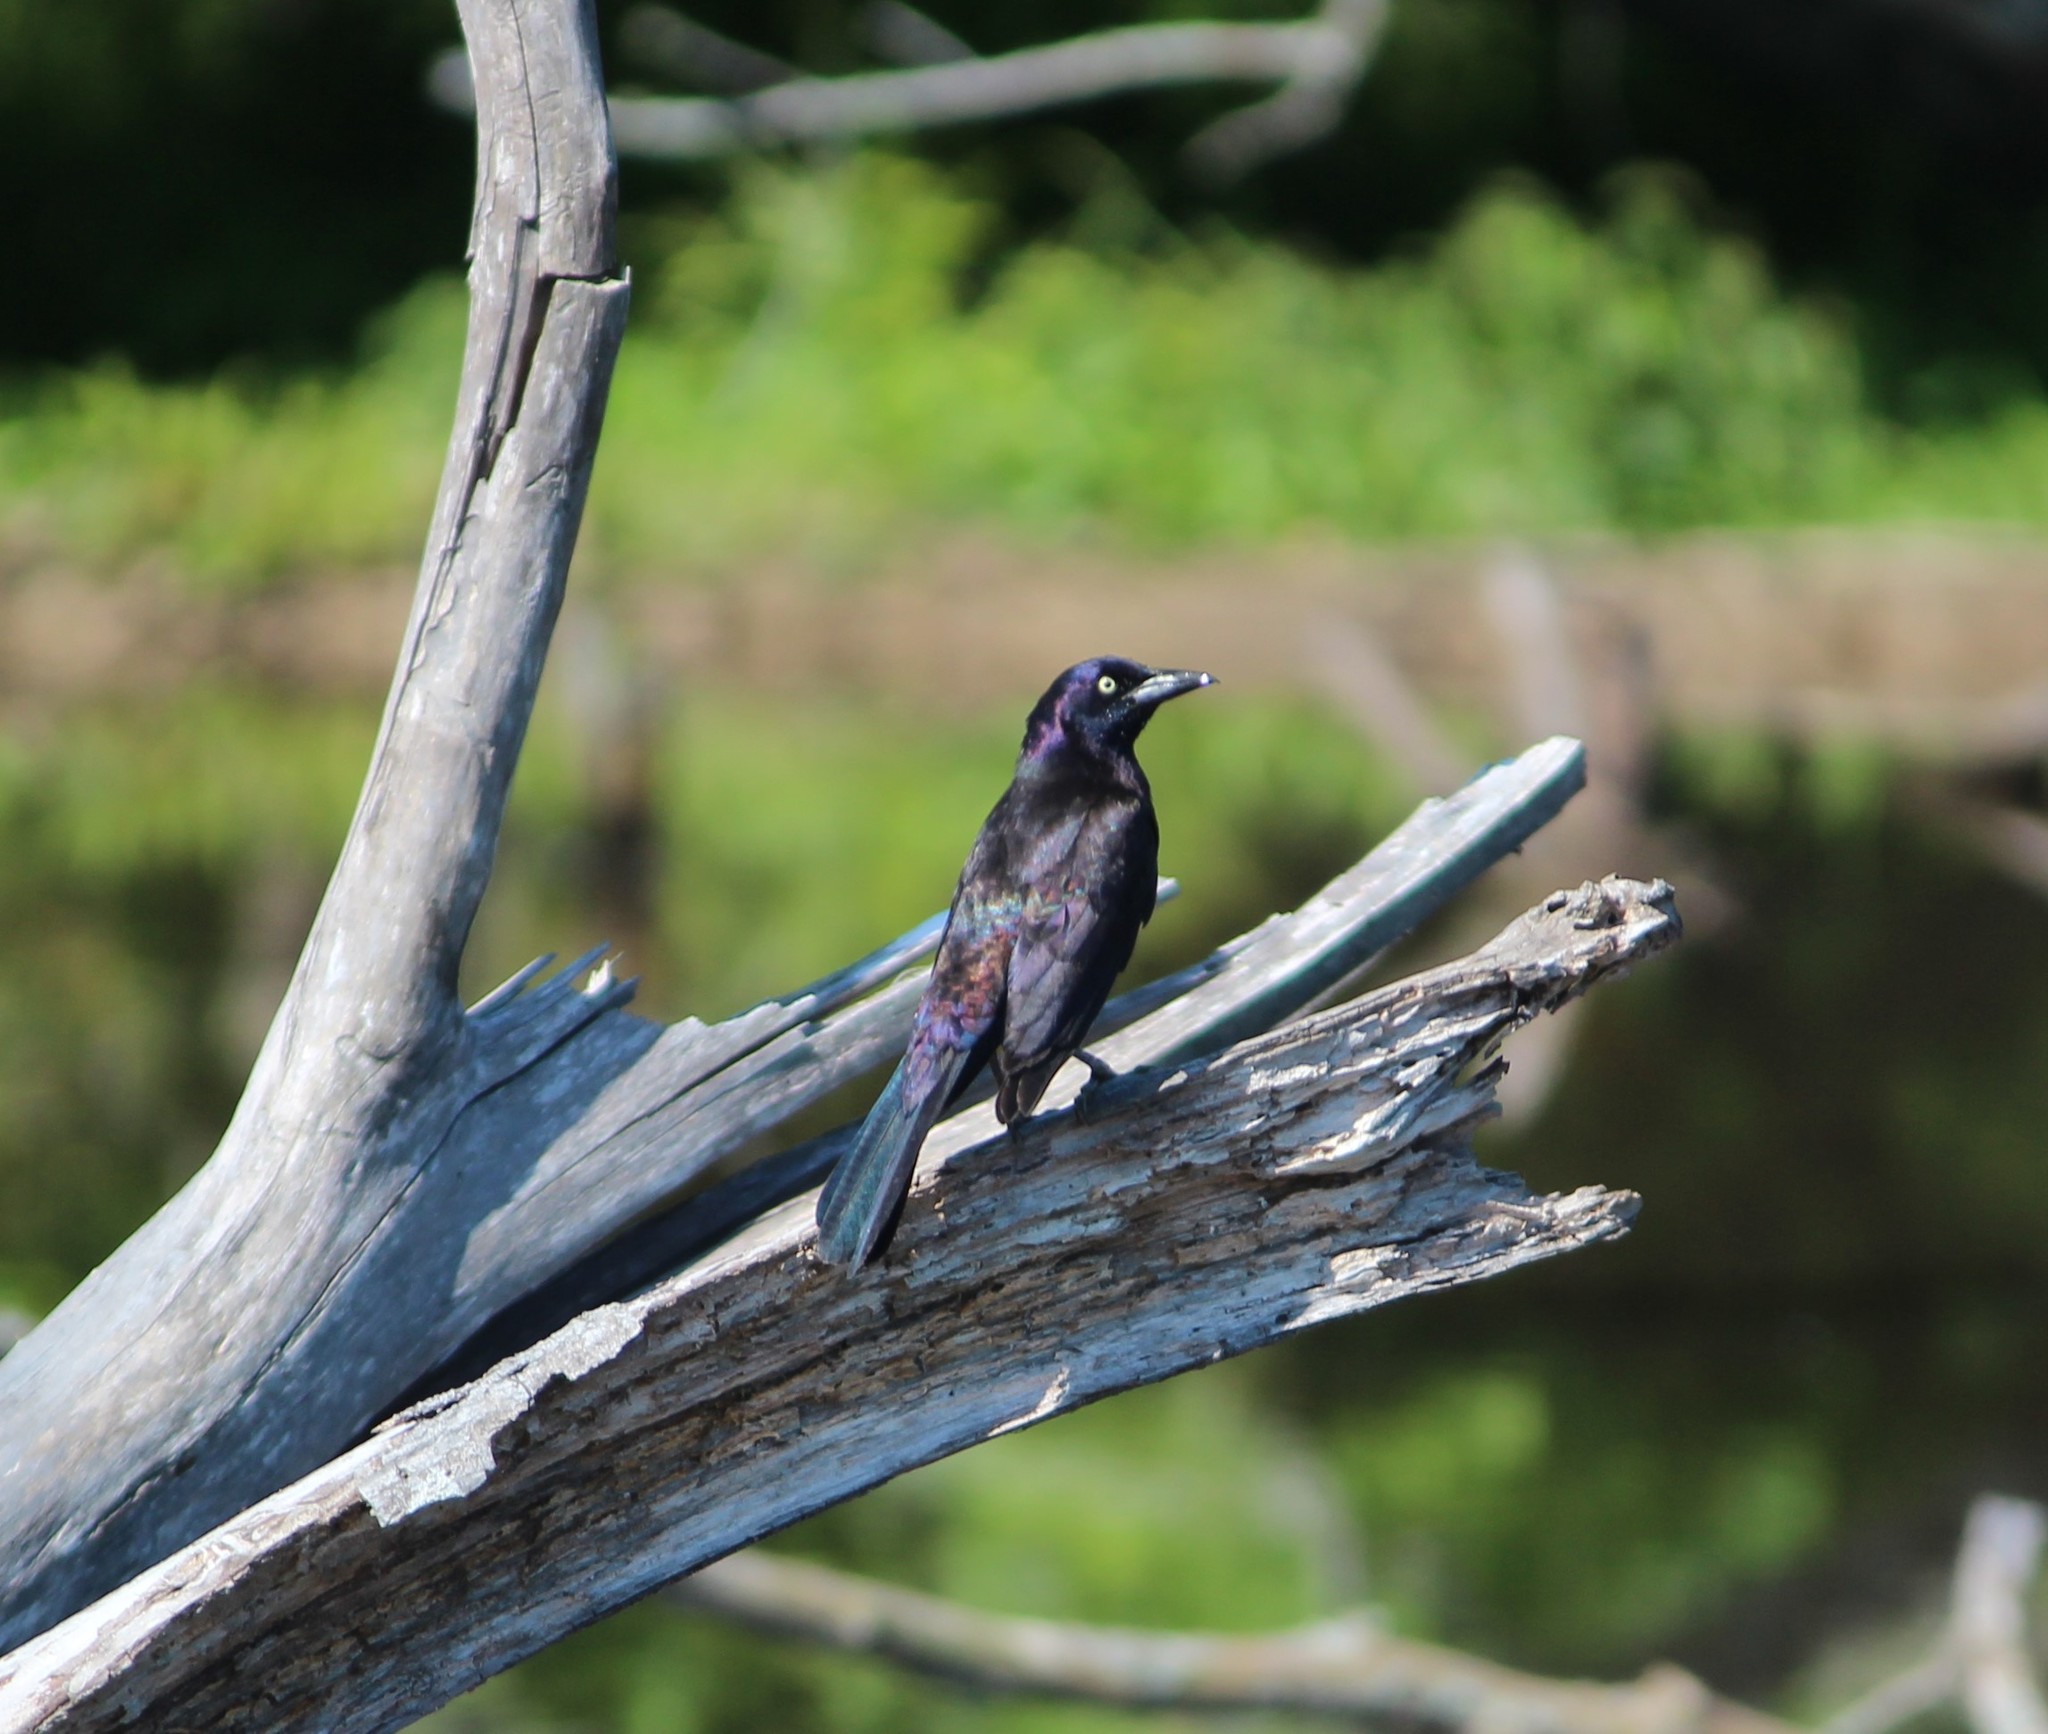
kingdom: Animalia
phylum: Chordata
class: Aves
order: Passeriformes
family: Icteridae
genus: Quiscalus
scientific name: Quiscalus quiscula
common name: Common grackle
